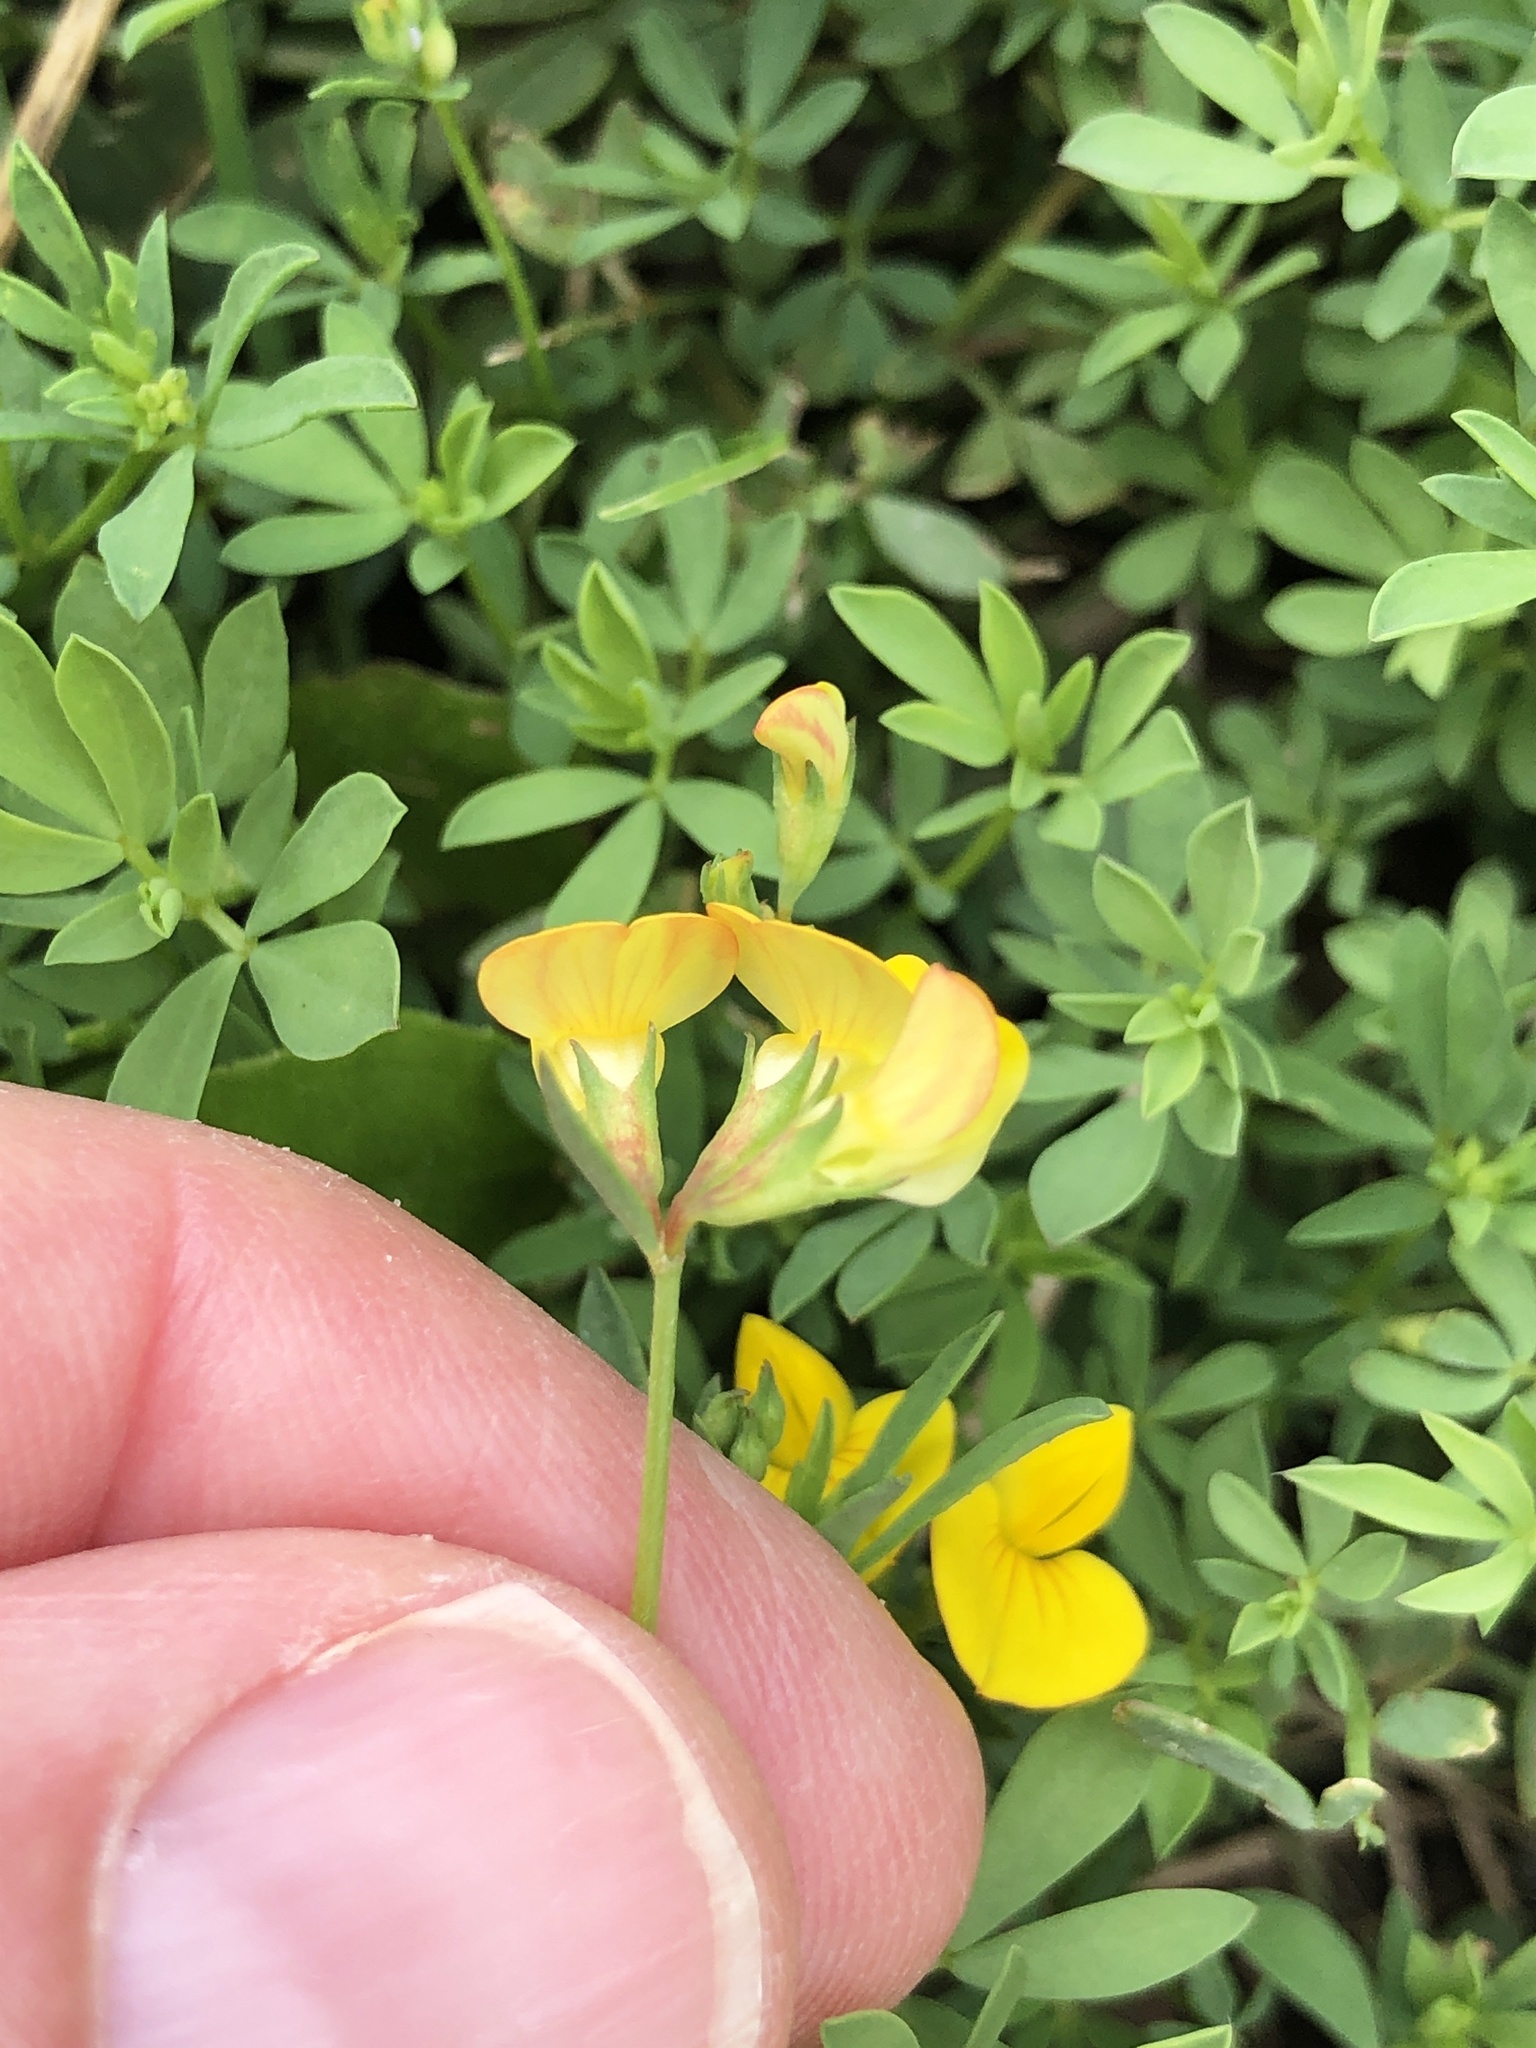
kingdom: Plantae
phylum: Tracheophyta
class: Magnoliopsida
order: Fabales
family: Fabaceae
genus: Lotus
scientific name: Lotus corniculatus
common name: Common bird's-foot-trefoil
